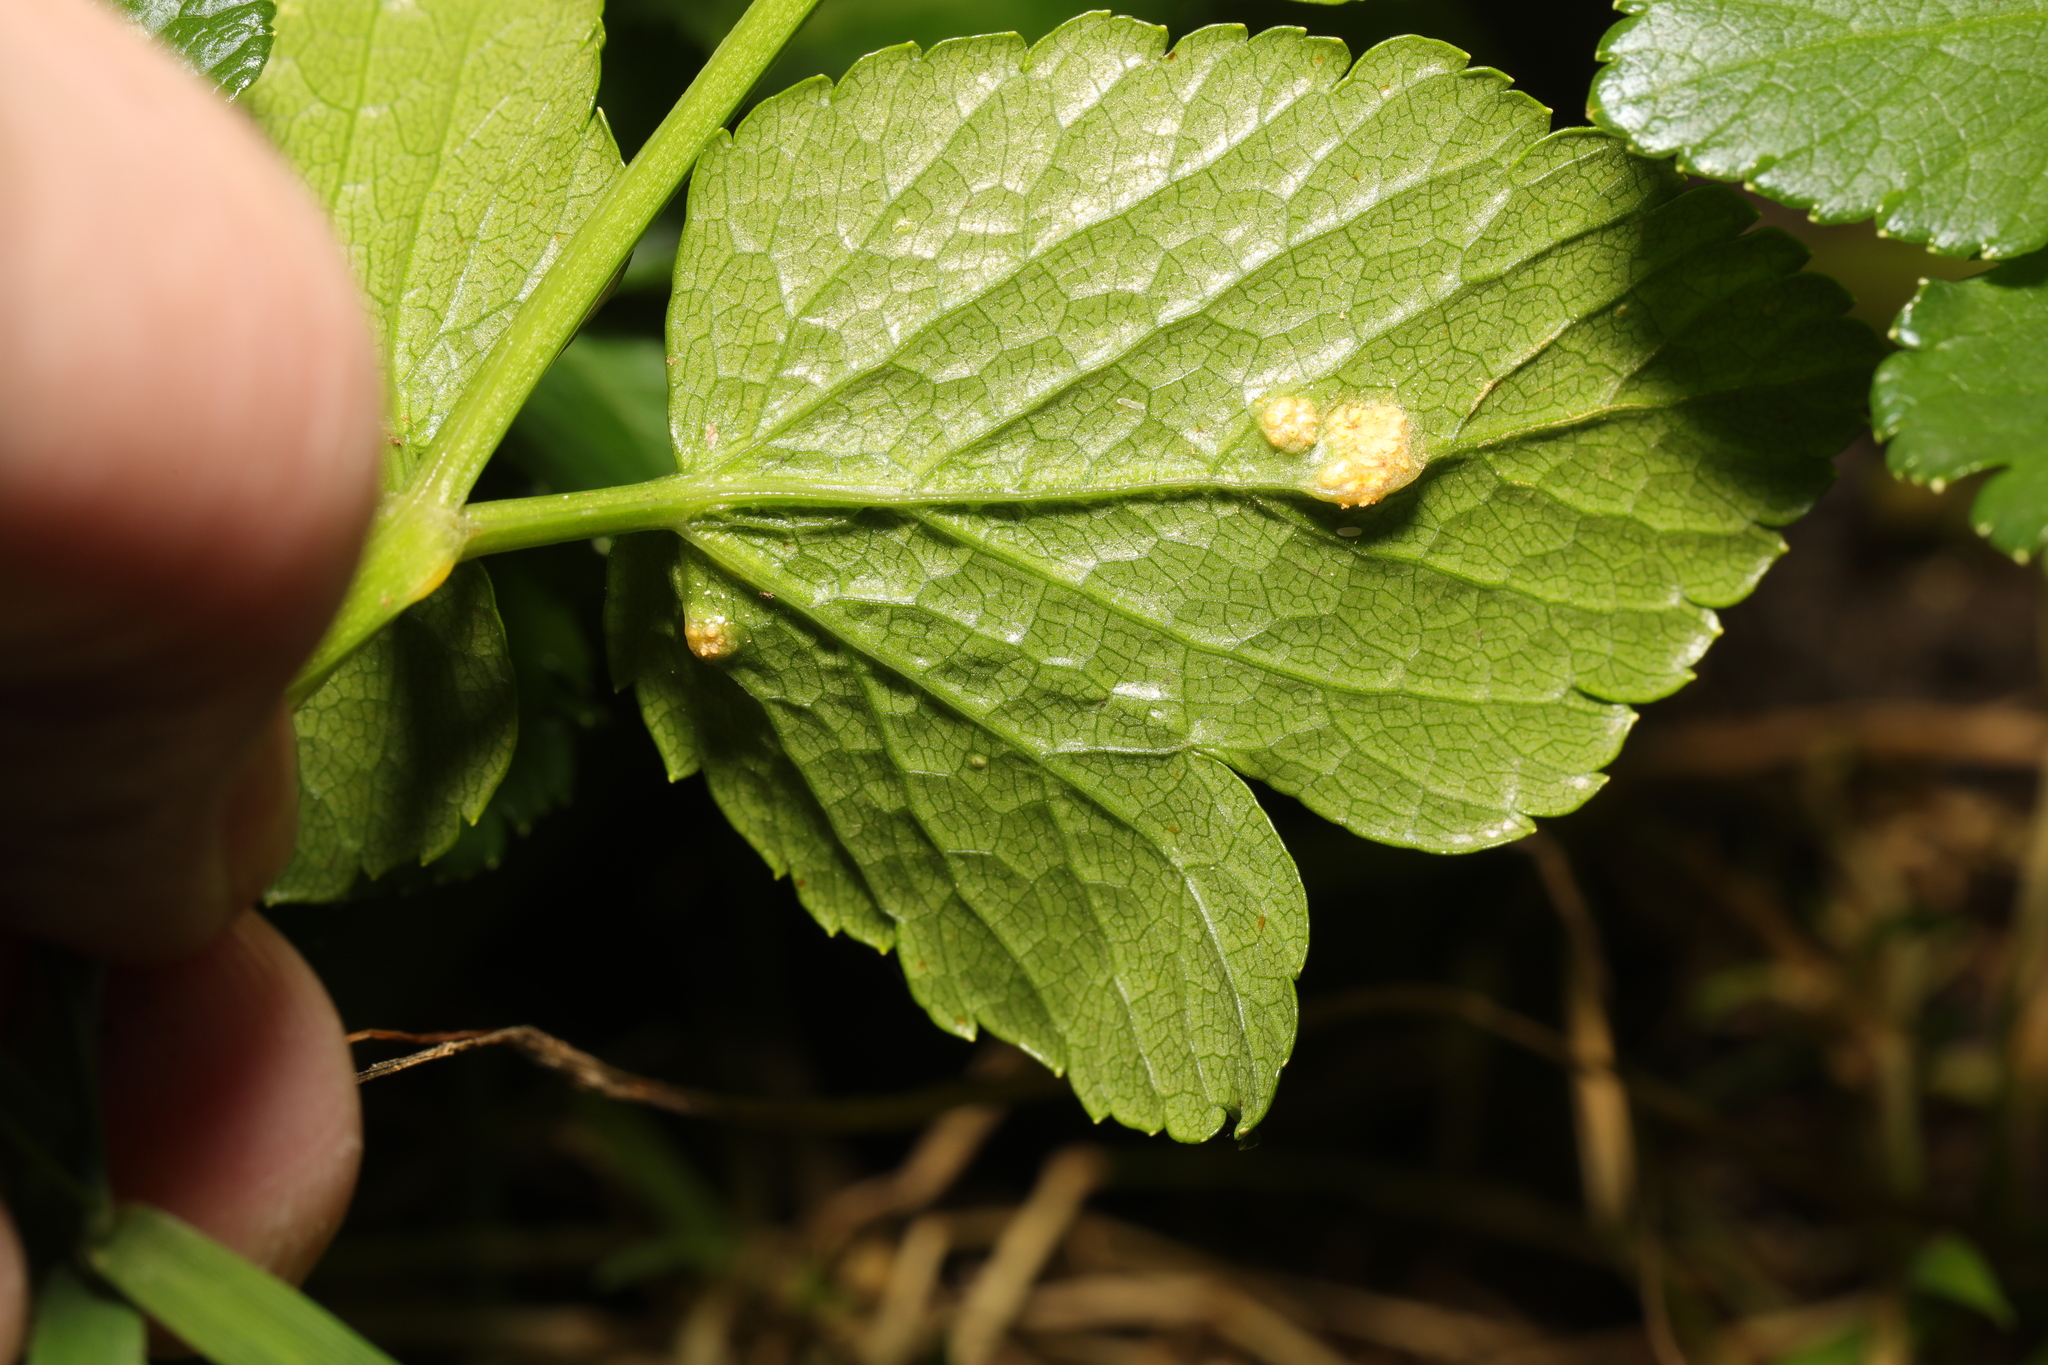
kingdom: Fungi
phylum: Basidiomycota
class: Pucciniomycetes
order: Pucciniales
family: Pucciniaceae
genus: Puccinia
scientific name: Puccinia smyrnii
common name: Alexanders rust
